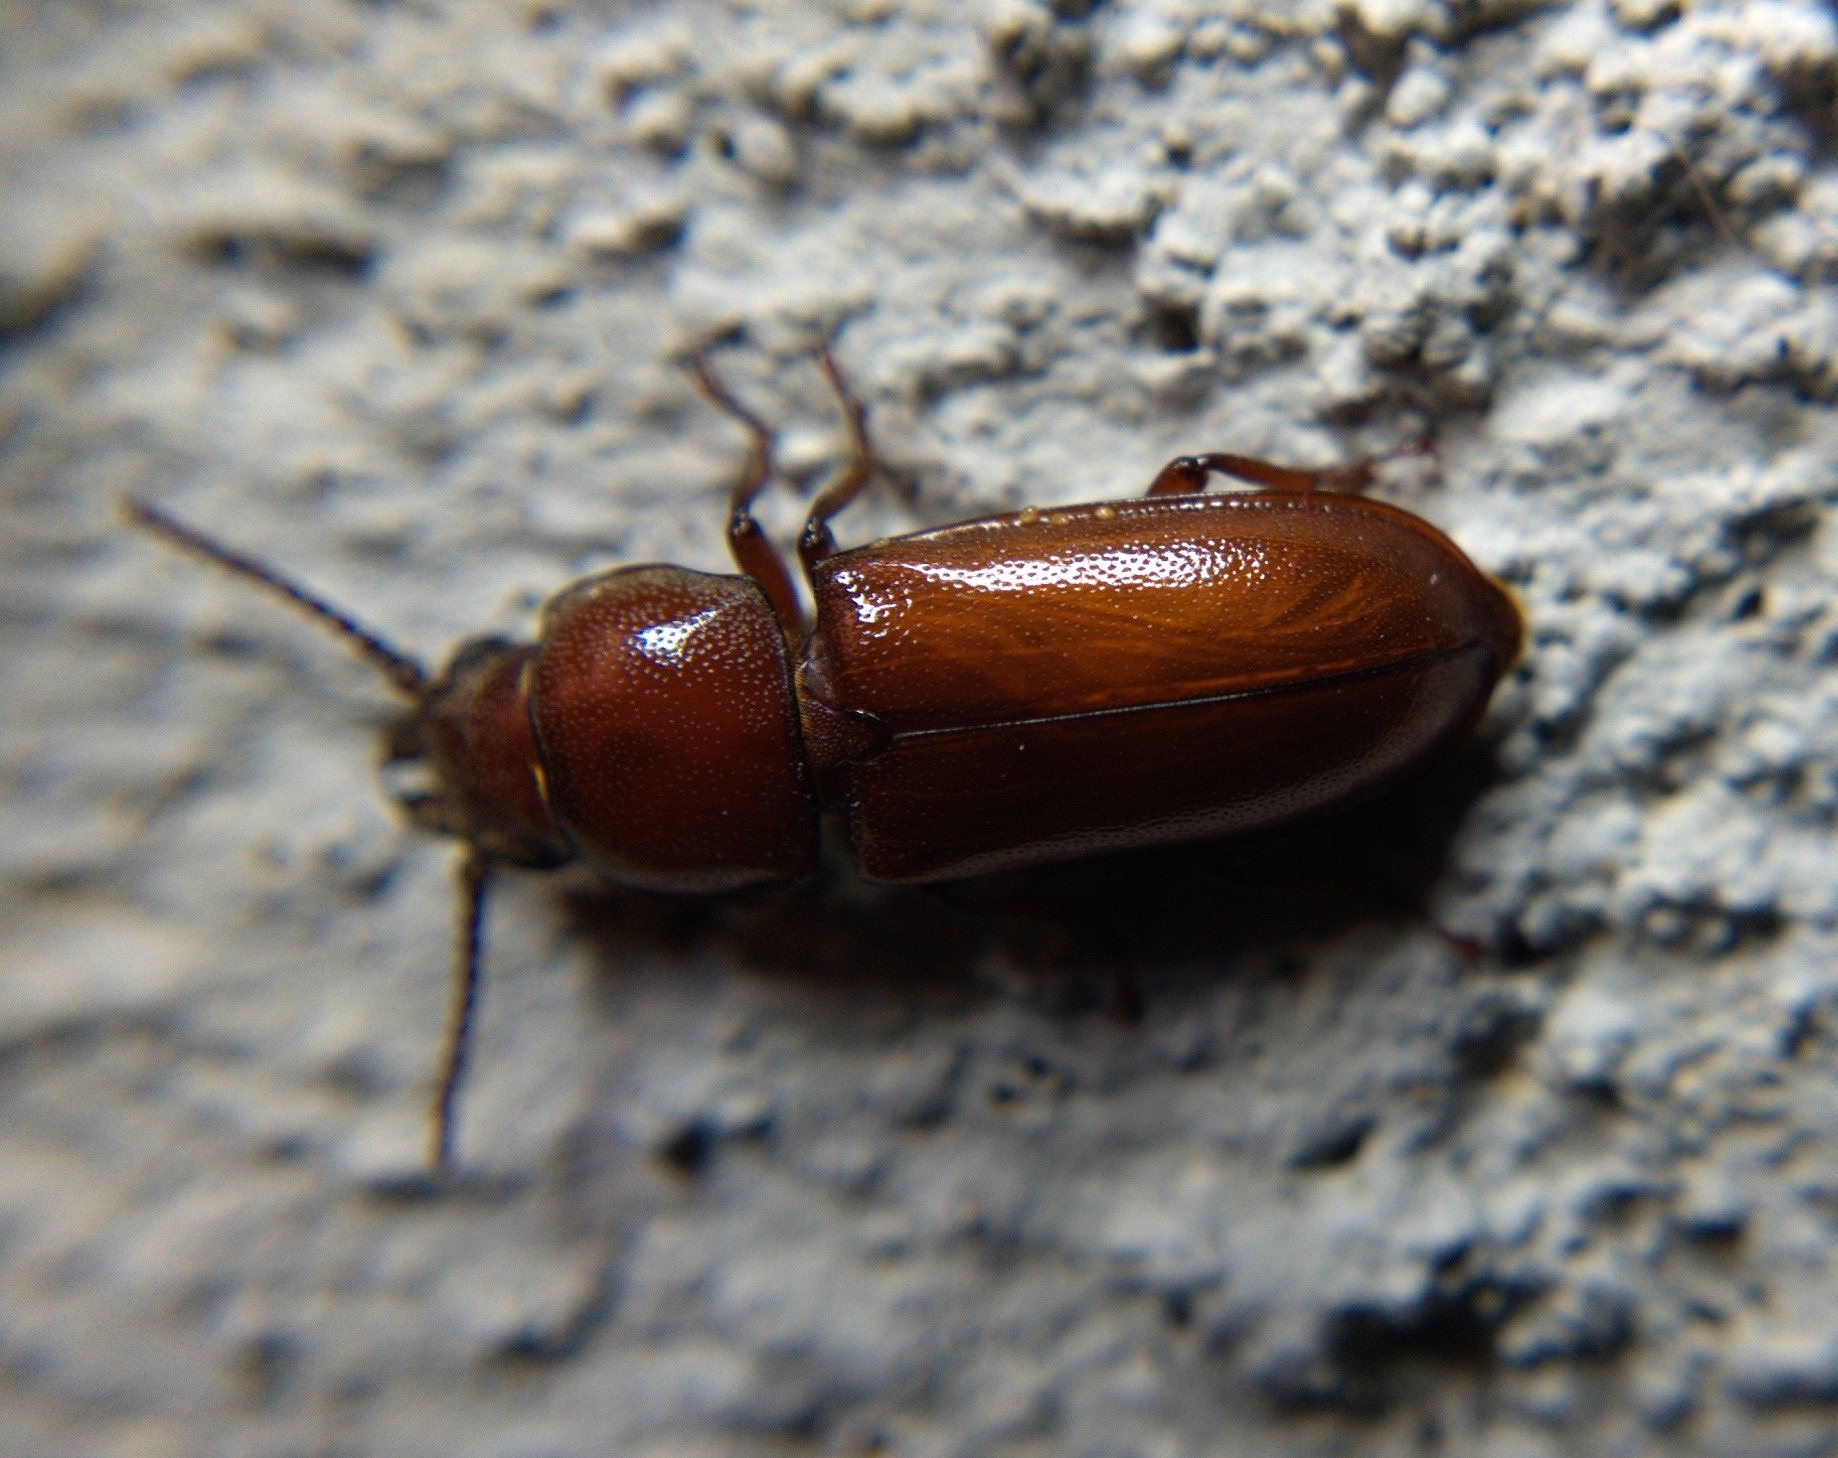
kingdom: Animalia
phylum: Arthropoda
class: Insecta
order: Coleoptera
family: Cerambycidae
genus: Neandra
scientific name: Neandra brunnea
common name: Pole borer
